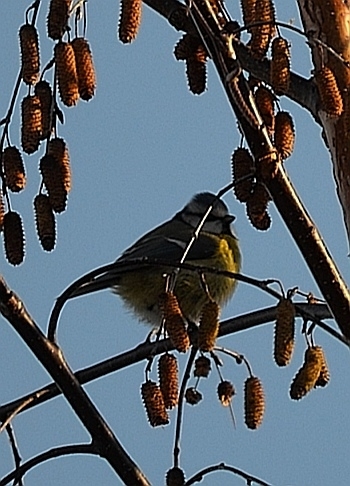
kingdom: Animalia
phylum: Chordata
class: Aves
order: Passeriformes
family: Paridae
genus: Cyanistes
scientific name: Cyanistes caeruleus
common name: Eurasian blue tit
